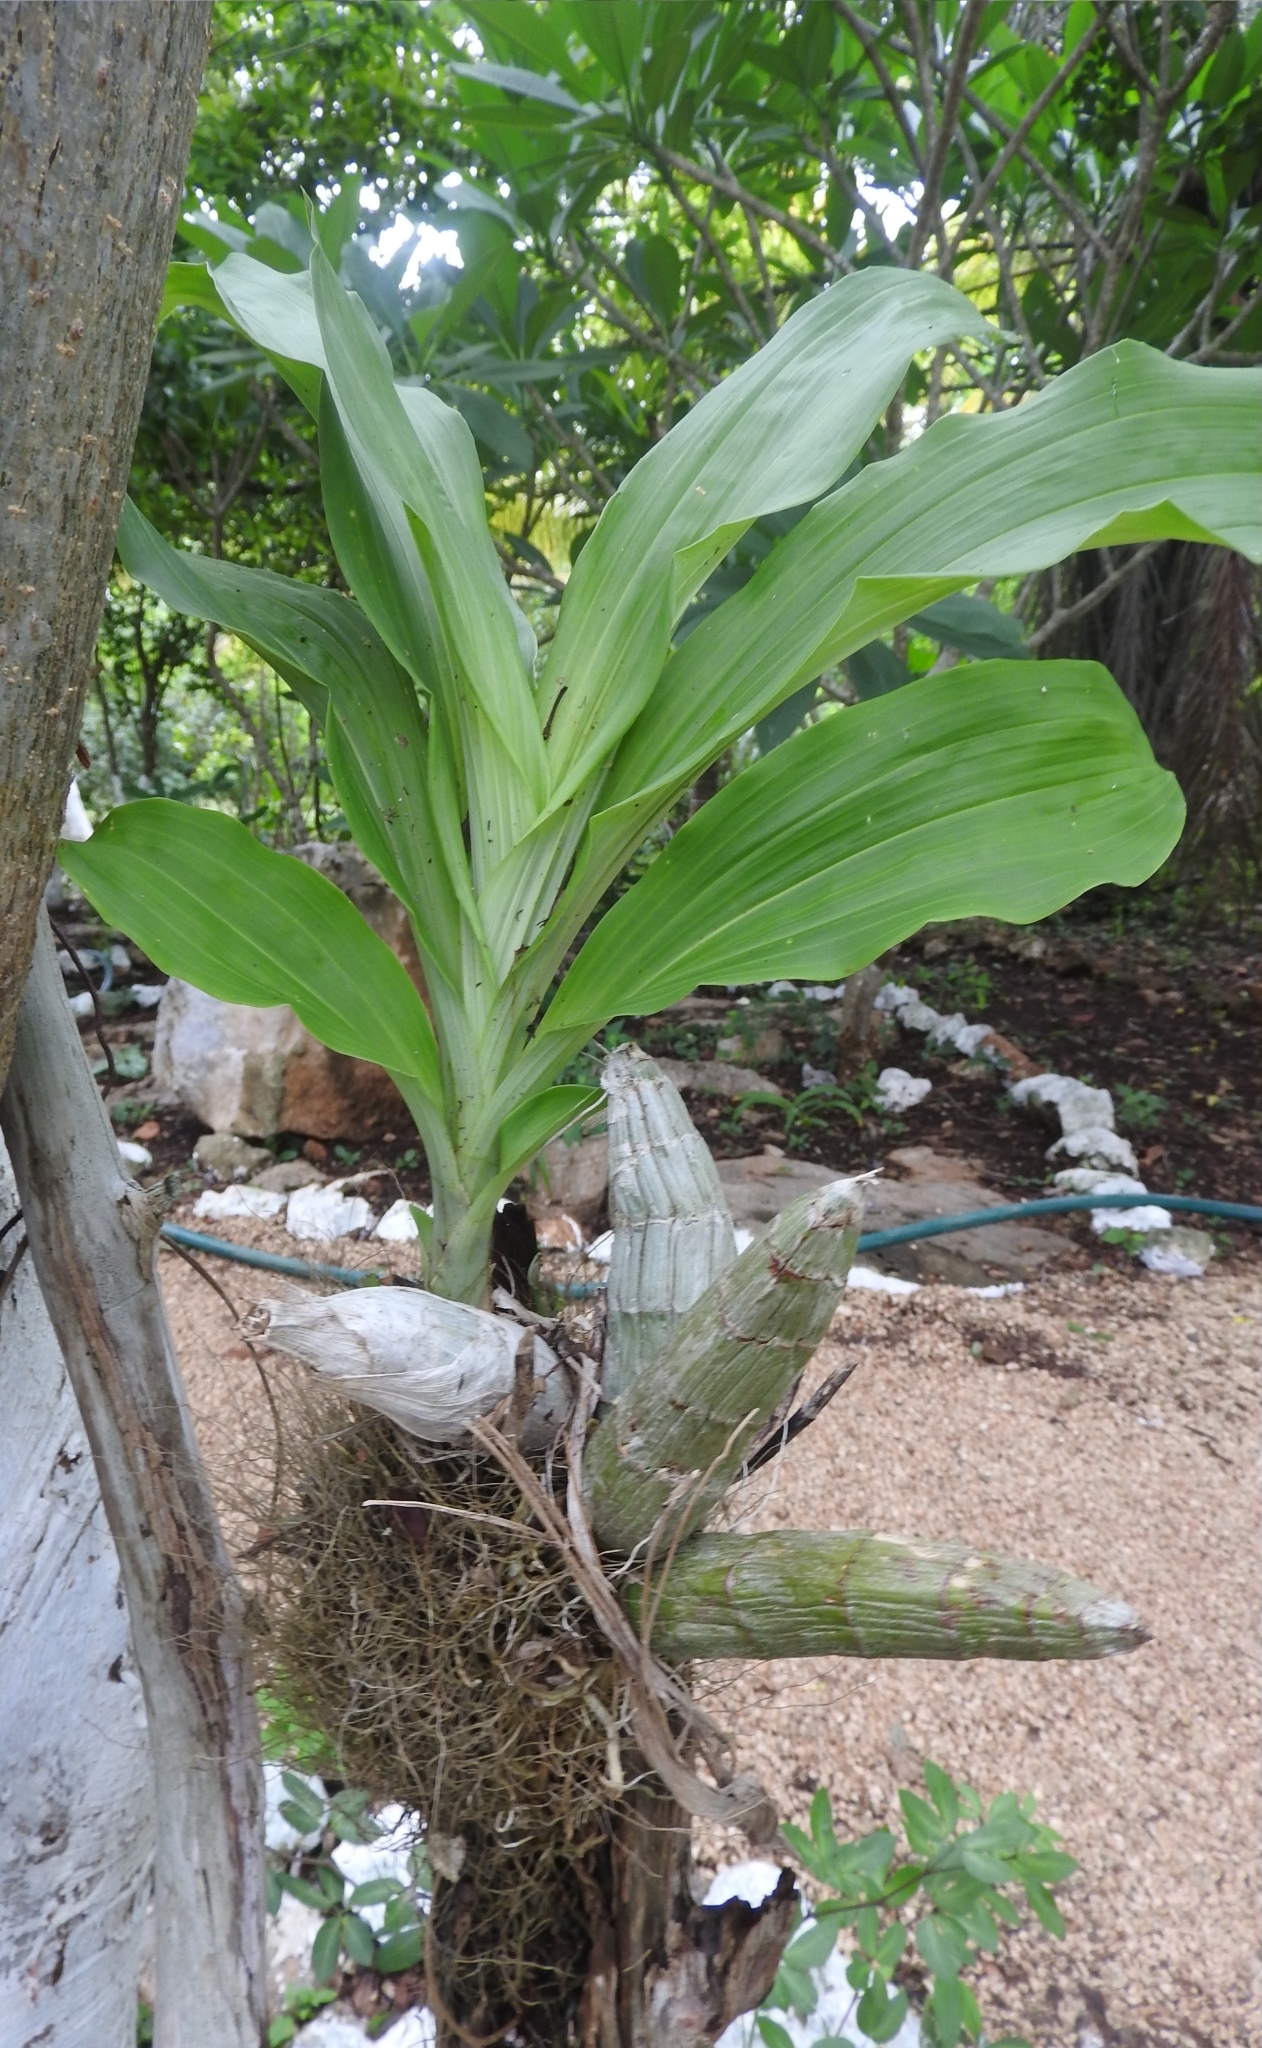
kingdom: Plantae
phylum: Tracheophyta
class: Liliopsida
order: Asparagales
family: Orchidaceae
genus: Catasetum
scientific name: Catasetum integerrimum
